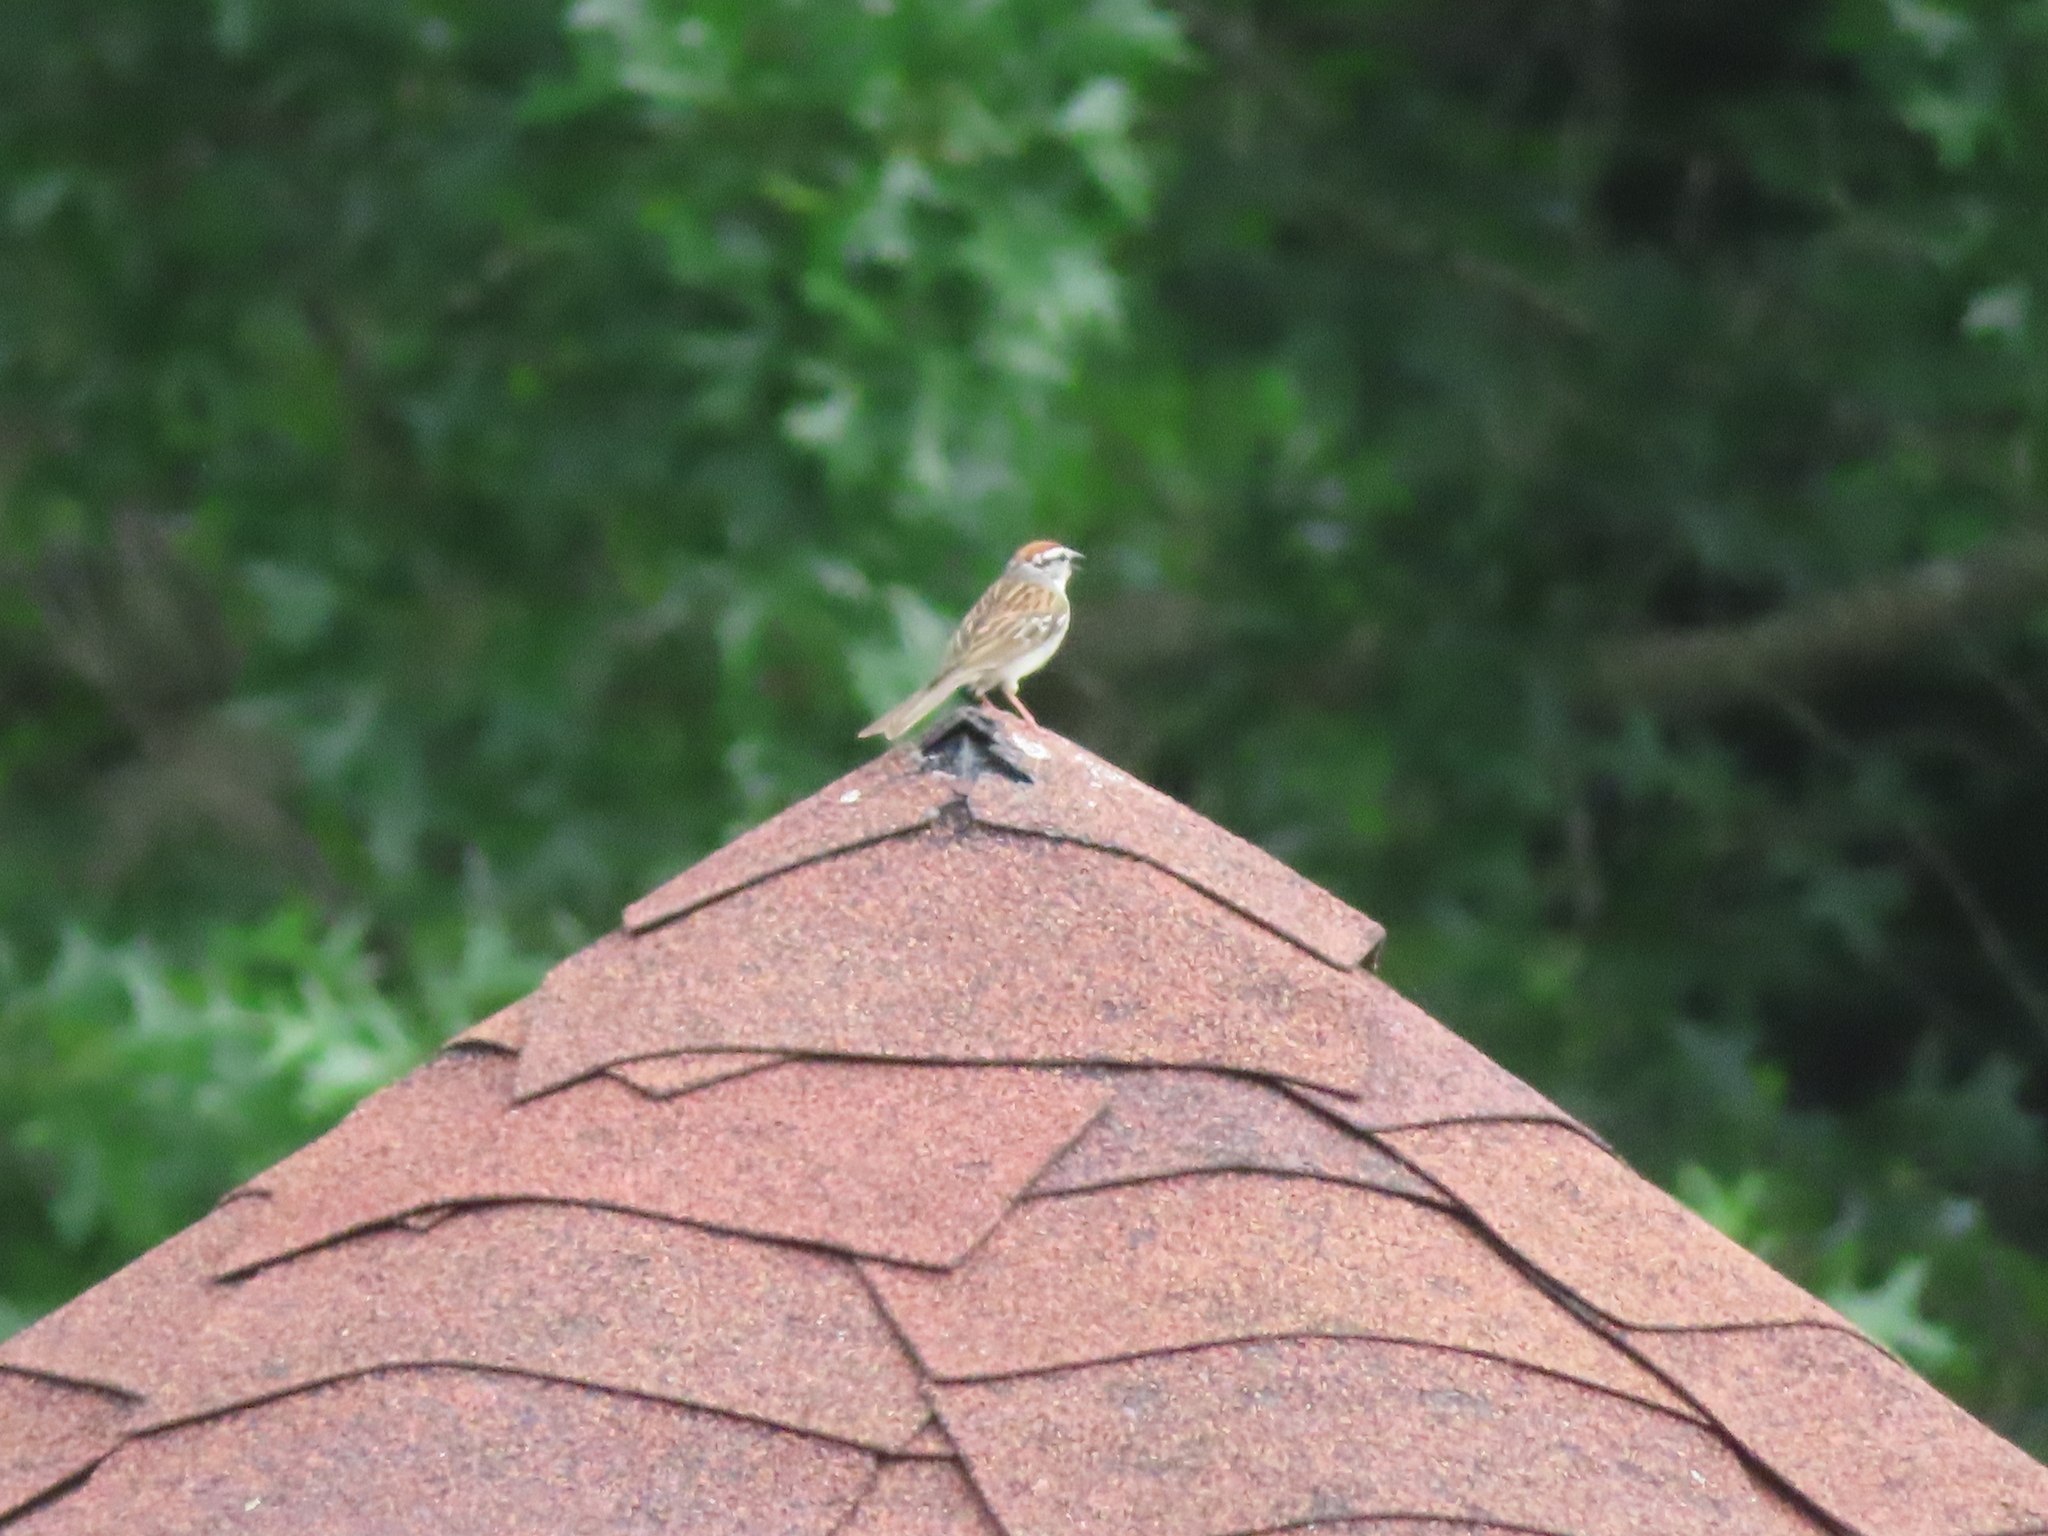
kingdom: Animalia
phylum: Chordata
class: Aves
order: Passeriformes
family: Passerellidae
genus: Spizella
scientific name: Spizella passerina
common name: Chipping sparrow
